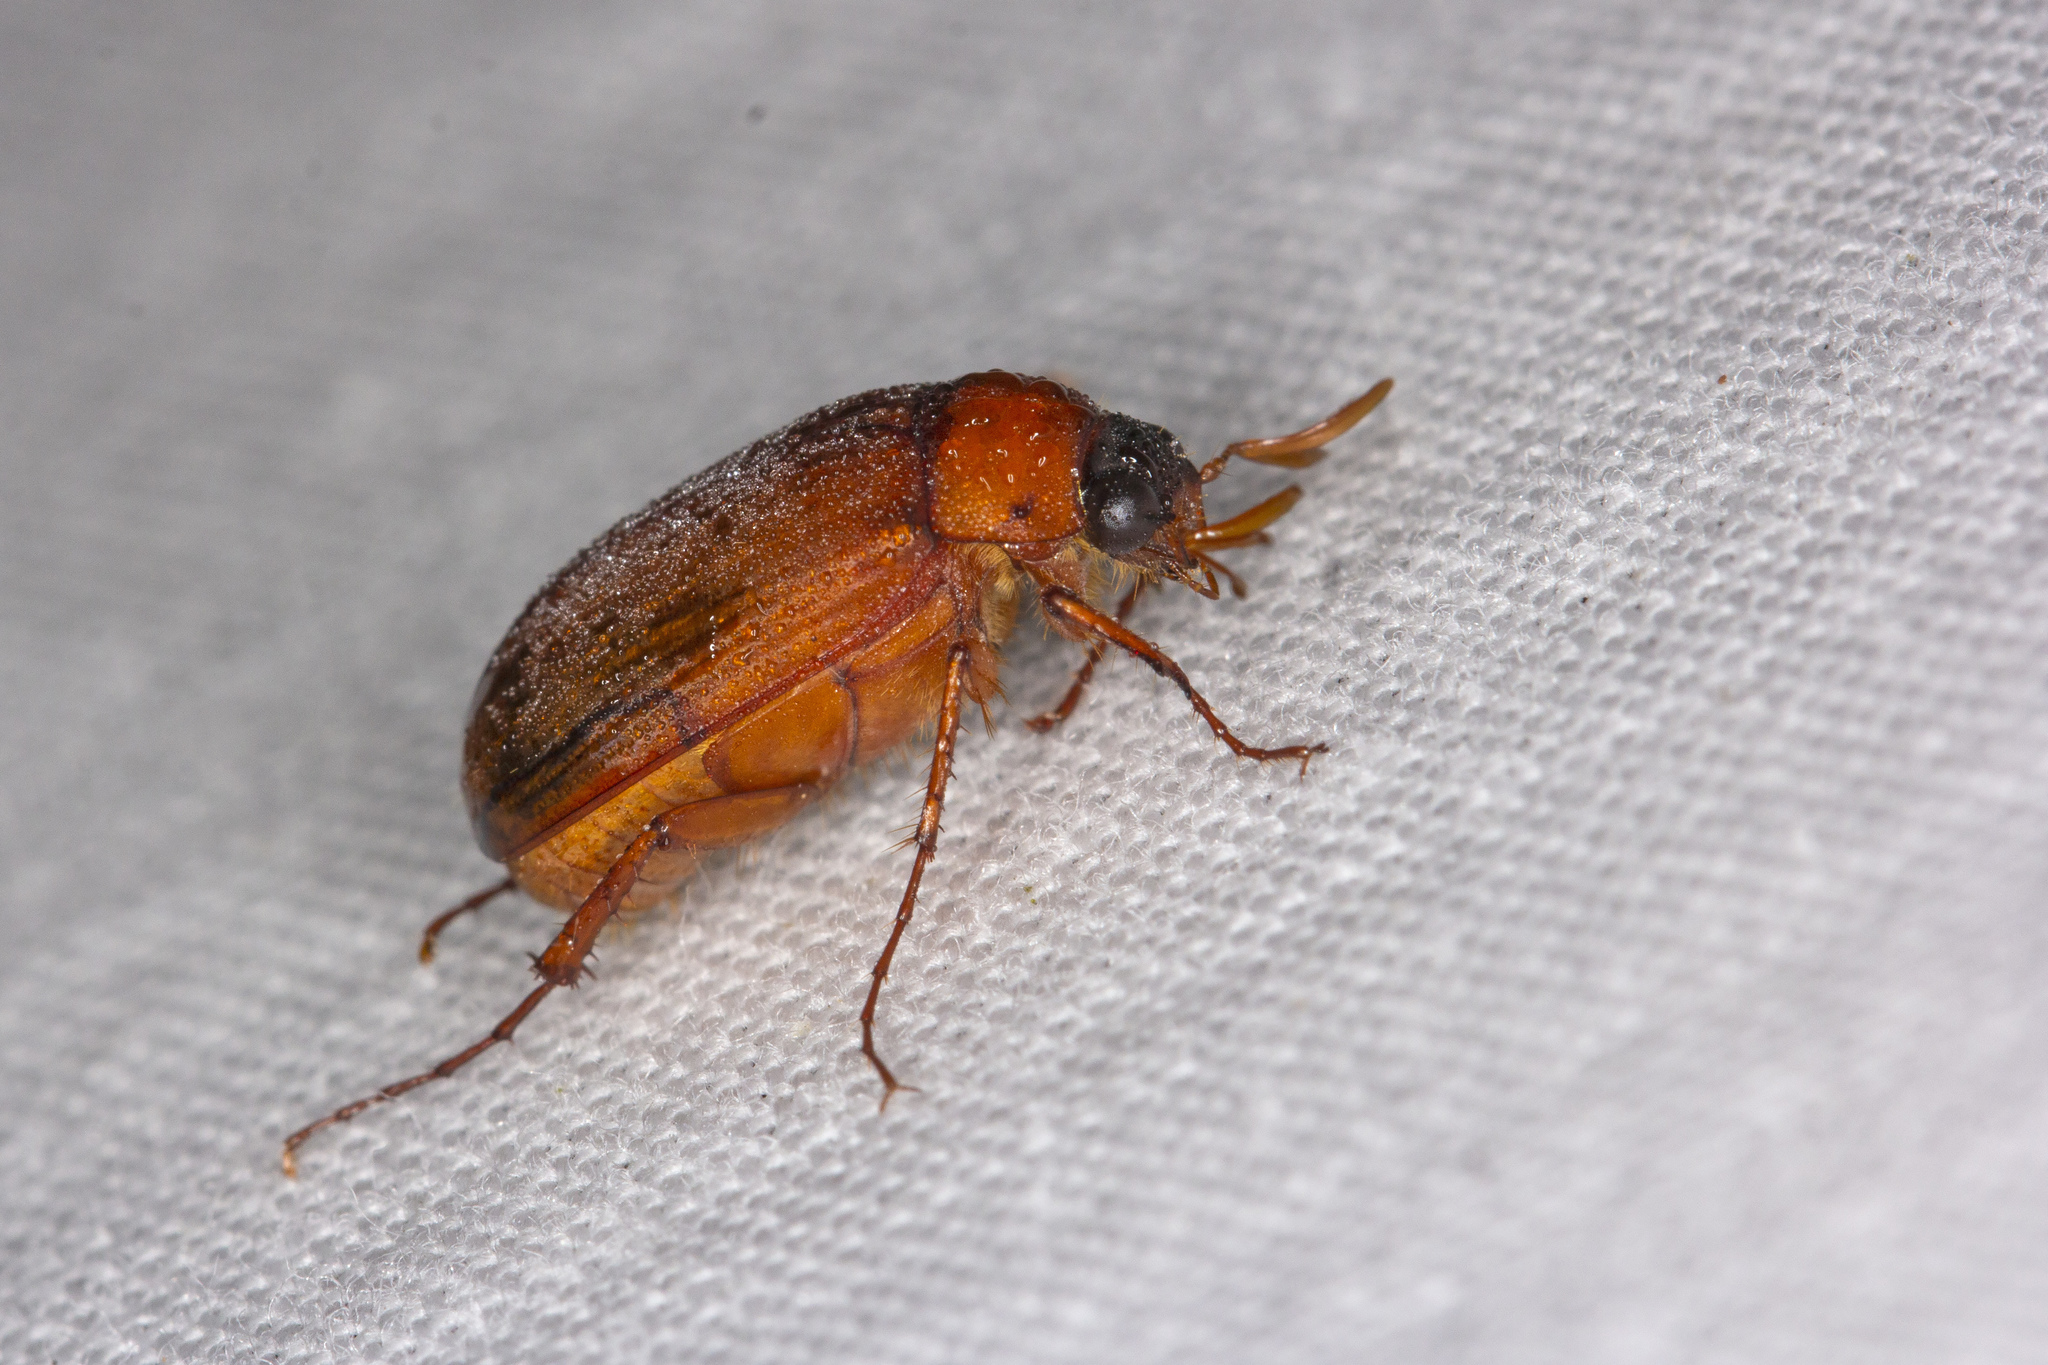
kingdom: Animalia
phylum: Arthropoda
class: Insecta
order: Coleoptera
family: Scarabaeidae
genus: Serica
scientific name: Serica brunnea
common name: Brown chafer
